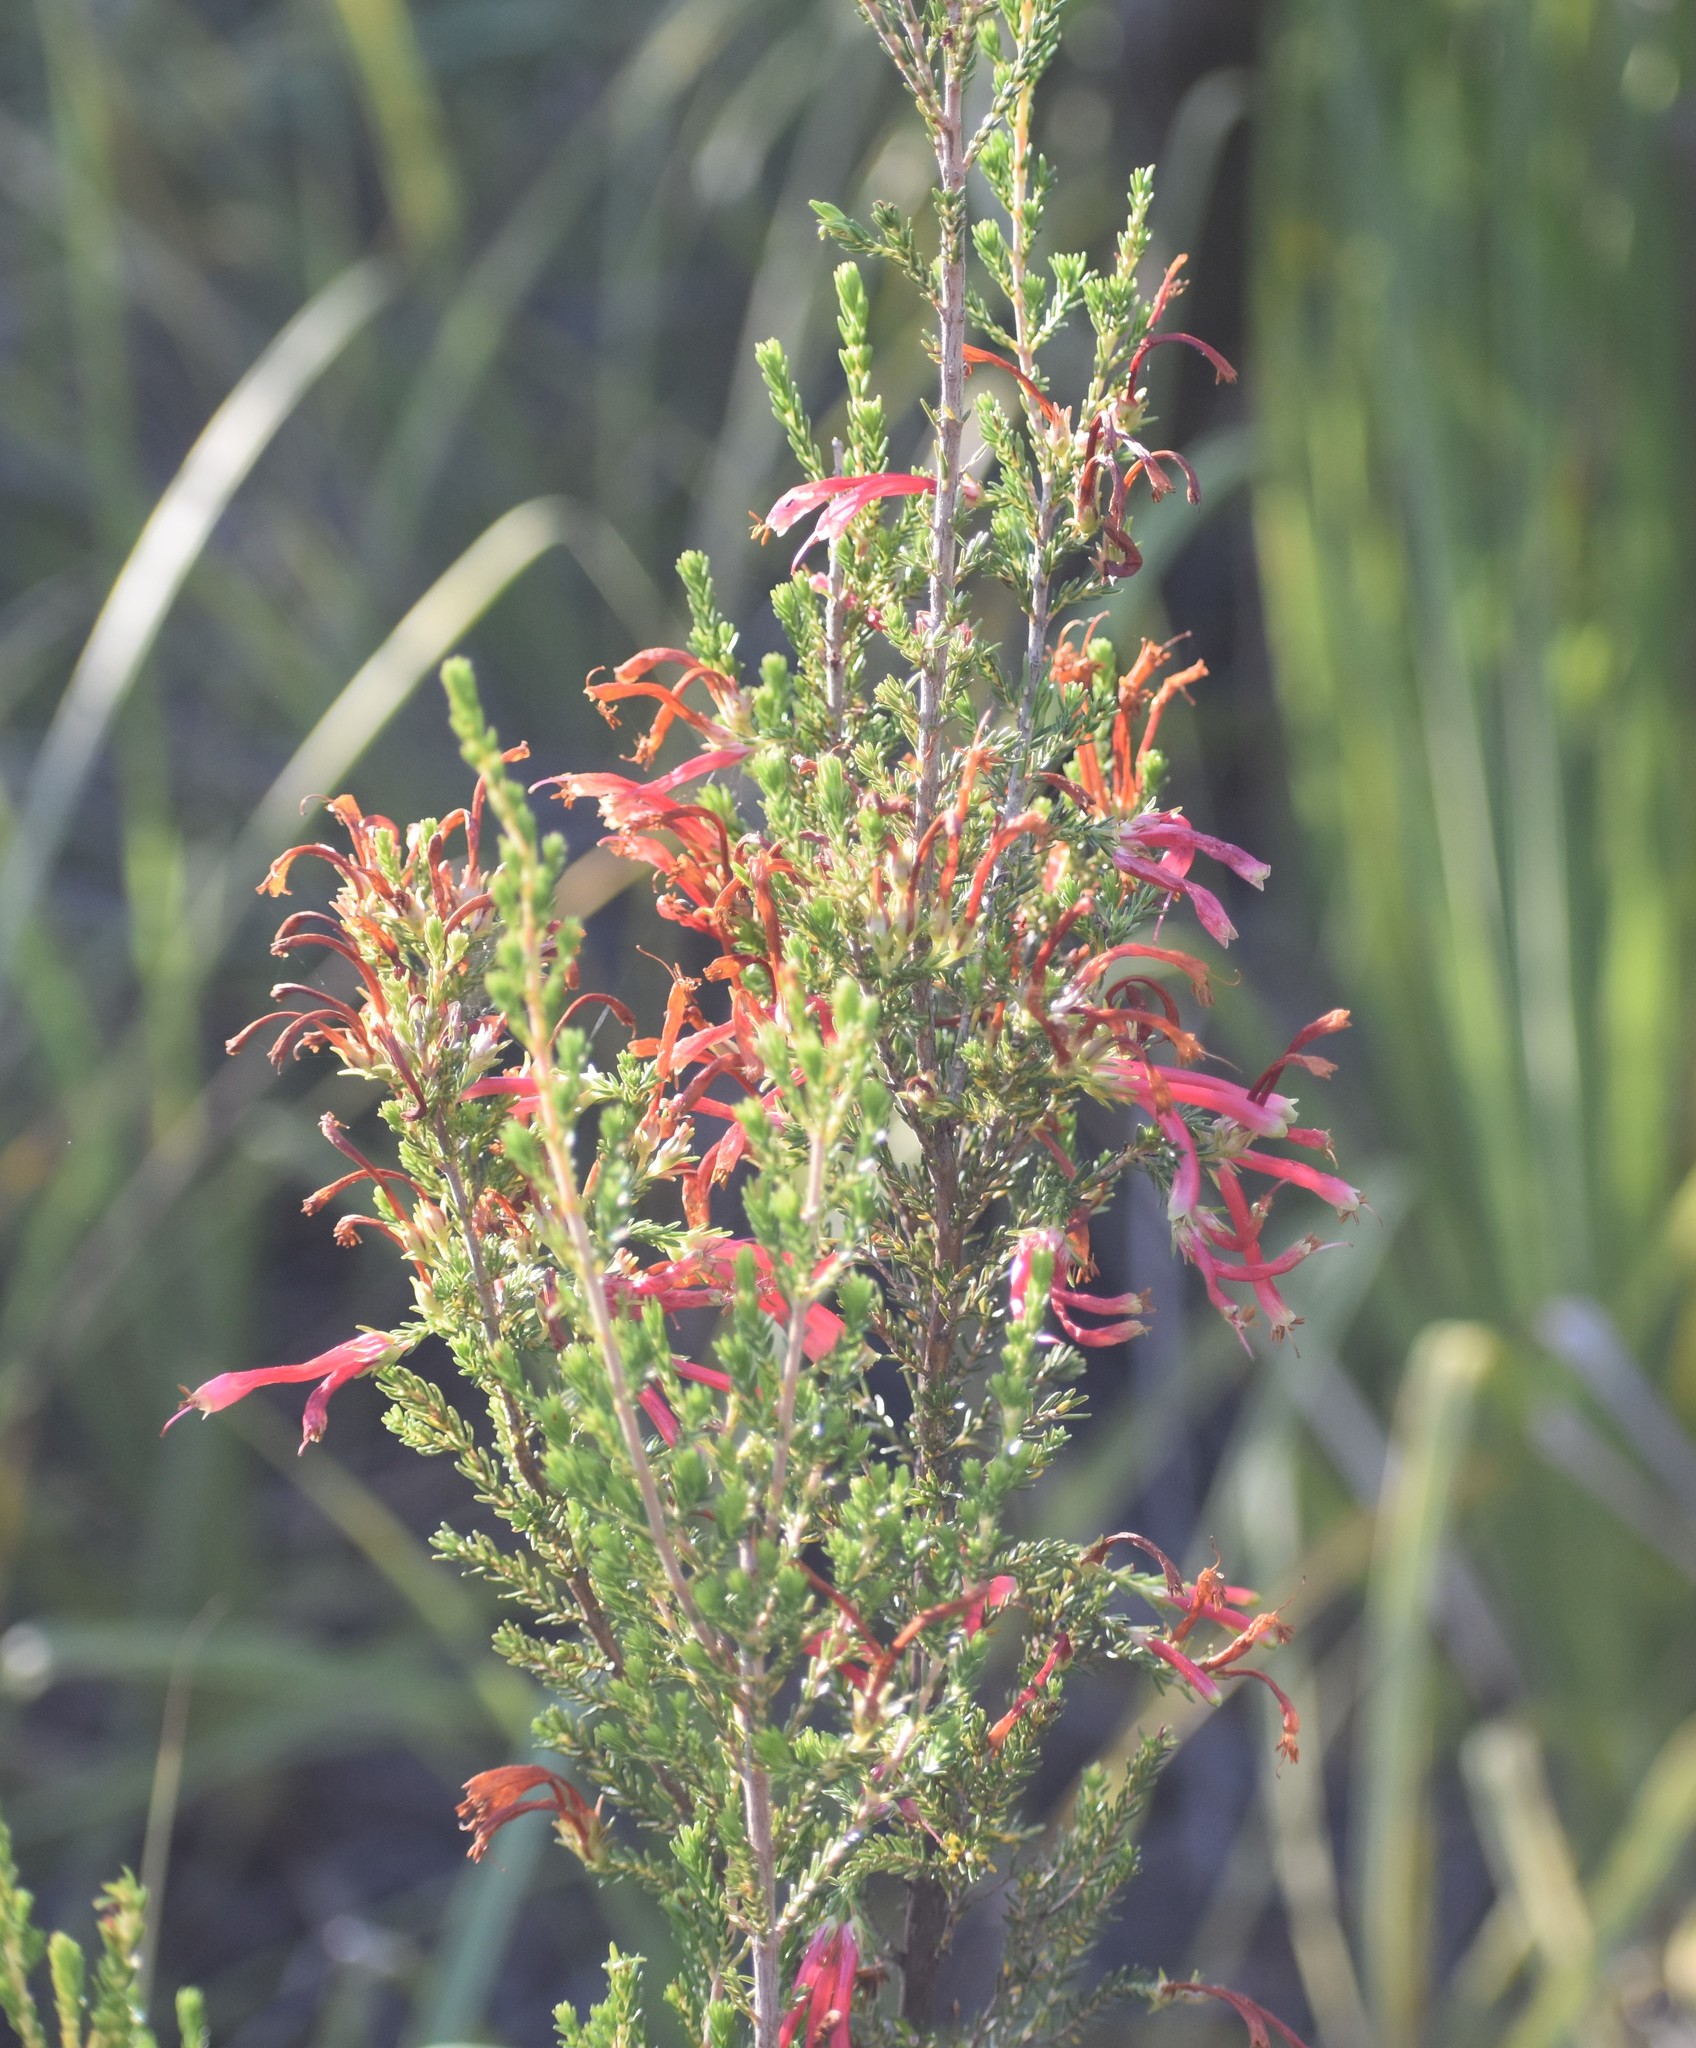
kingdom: Plantae
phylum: Tracheophyta
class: Magnoliopsida
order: Ericales
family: Ericaceae
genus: Erica
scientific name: Erica discolor
